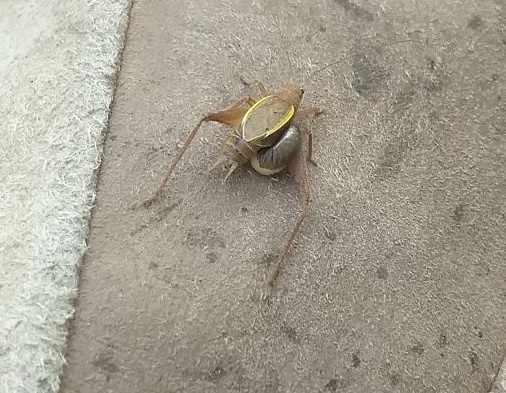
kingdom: Animalia
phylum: Arthropoda
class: Insecta
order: Orthoptera
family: Gryllidae
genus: Hapithus
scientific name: Hapithus agitator
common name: Restless bush cricket
